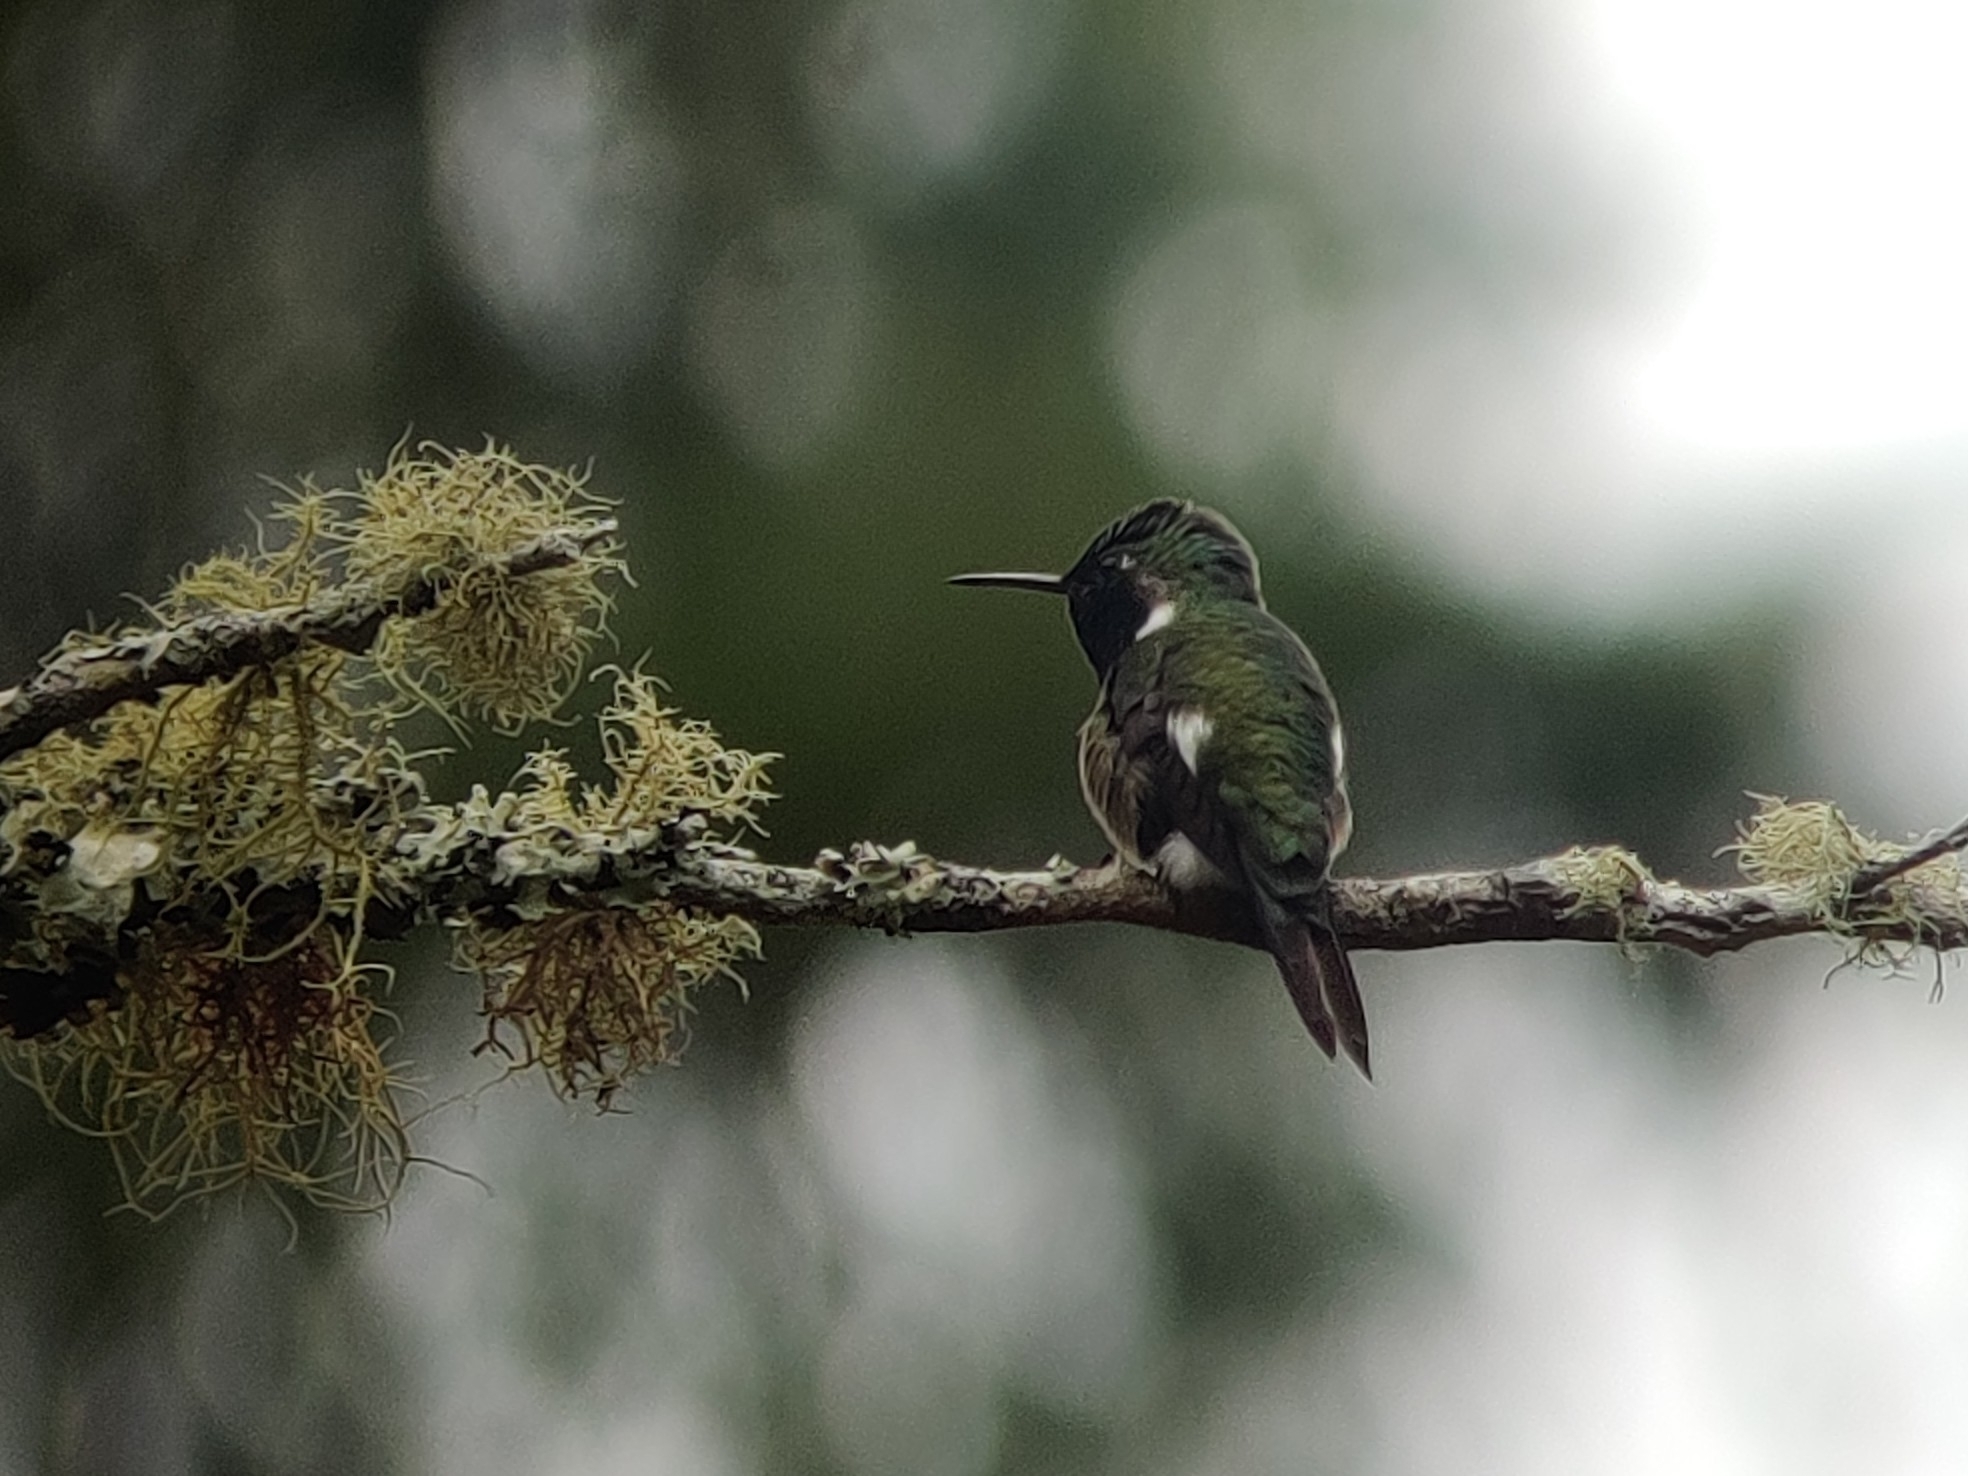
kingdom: Animalia
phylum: Chordata
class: Aves
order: Apodiformes
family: Trochilidae
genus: Calliphlox
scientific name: Calliphlox amethystina
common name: Amethyst woodstar
